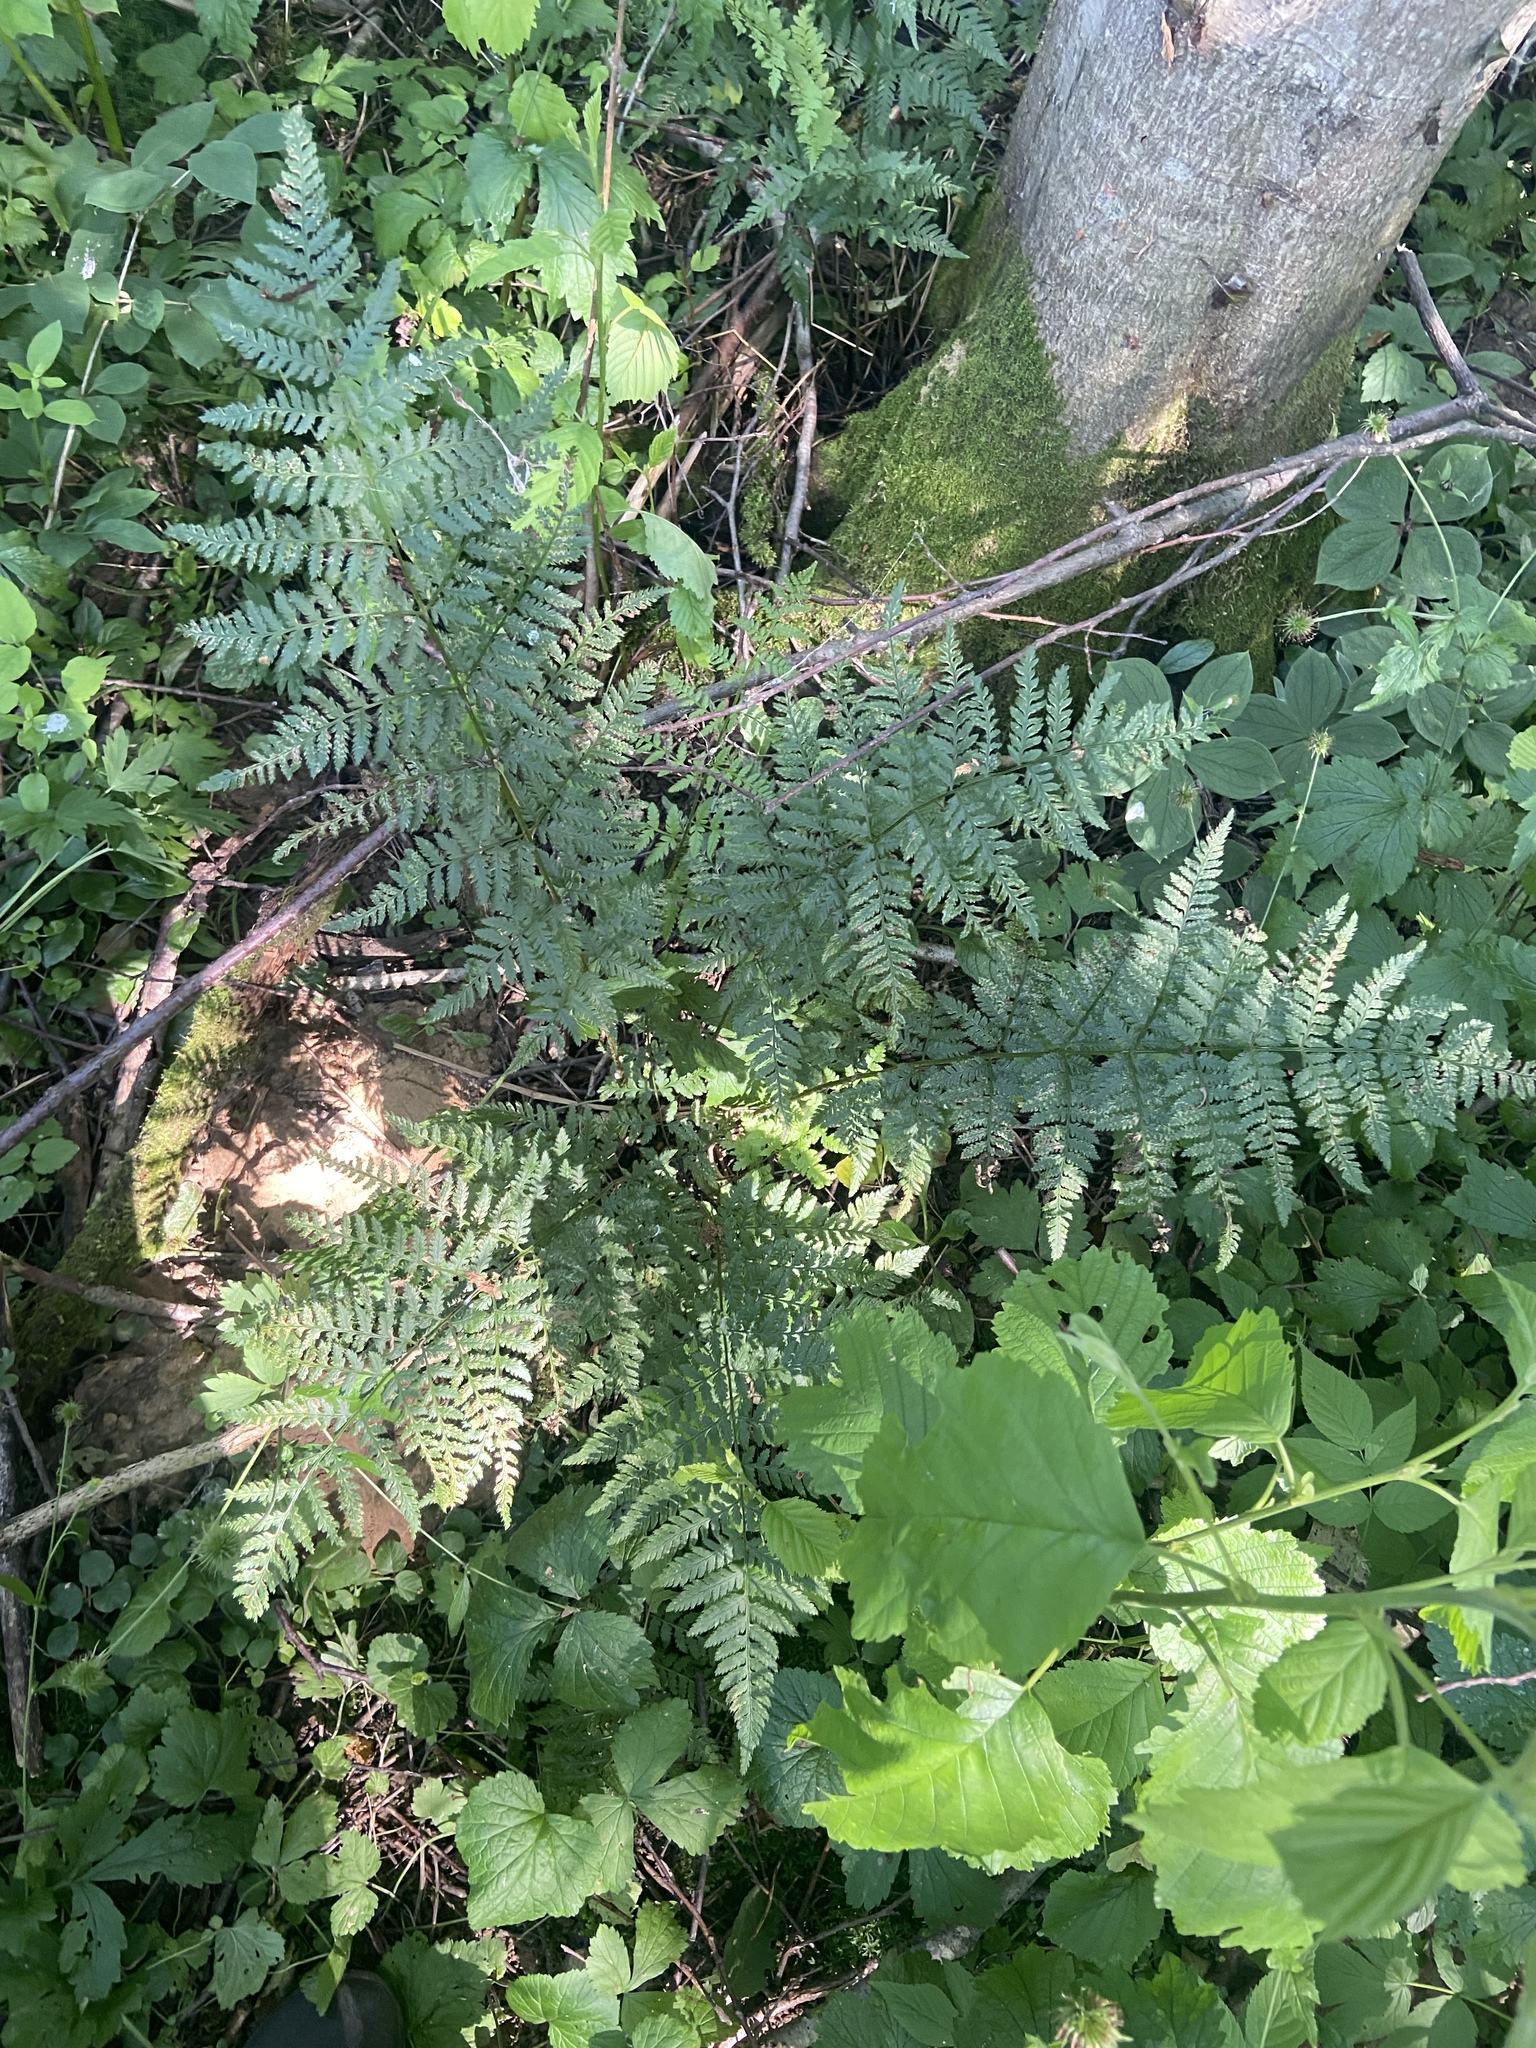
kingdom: Plantae
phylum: Tracheophyta
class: Polypodiopsida
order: Polypodiales
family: Dryopteridaceae
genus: Dryopteris
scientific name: Dryopteris carthusiana
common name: Narrow buckler-fern
